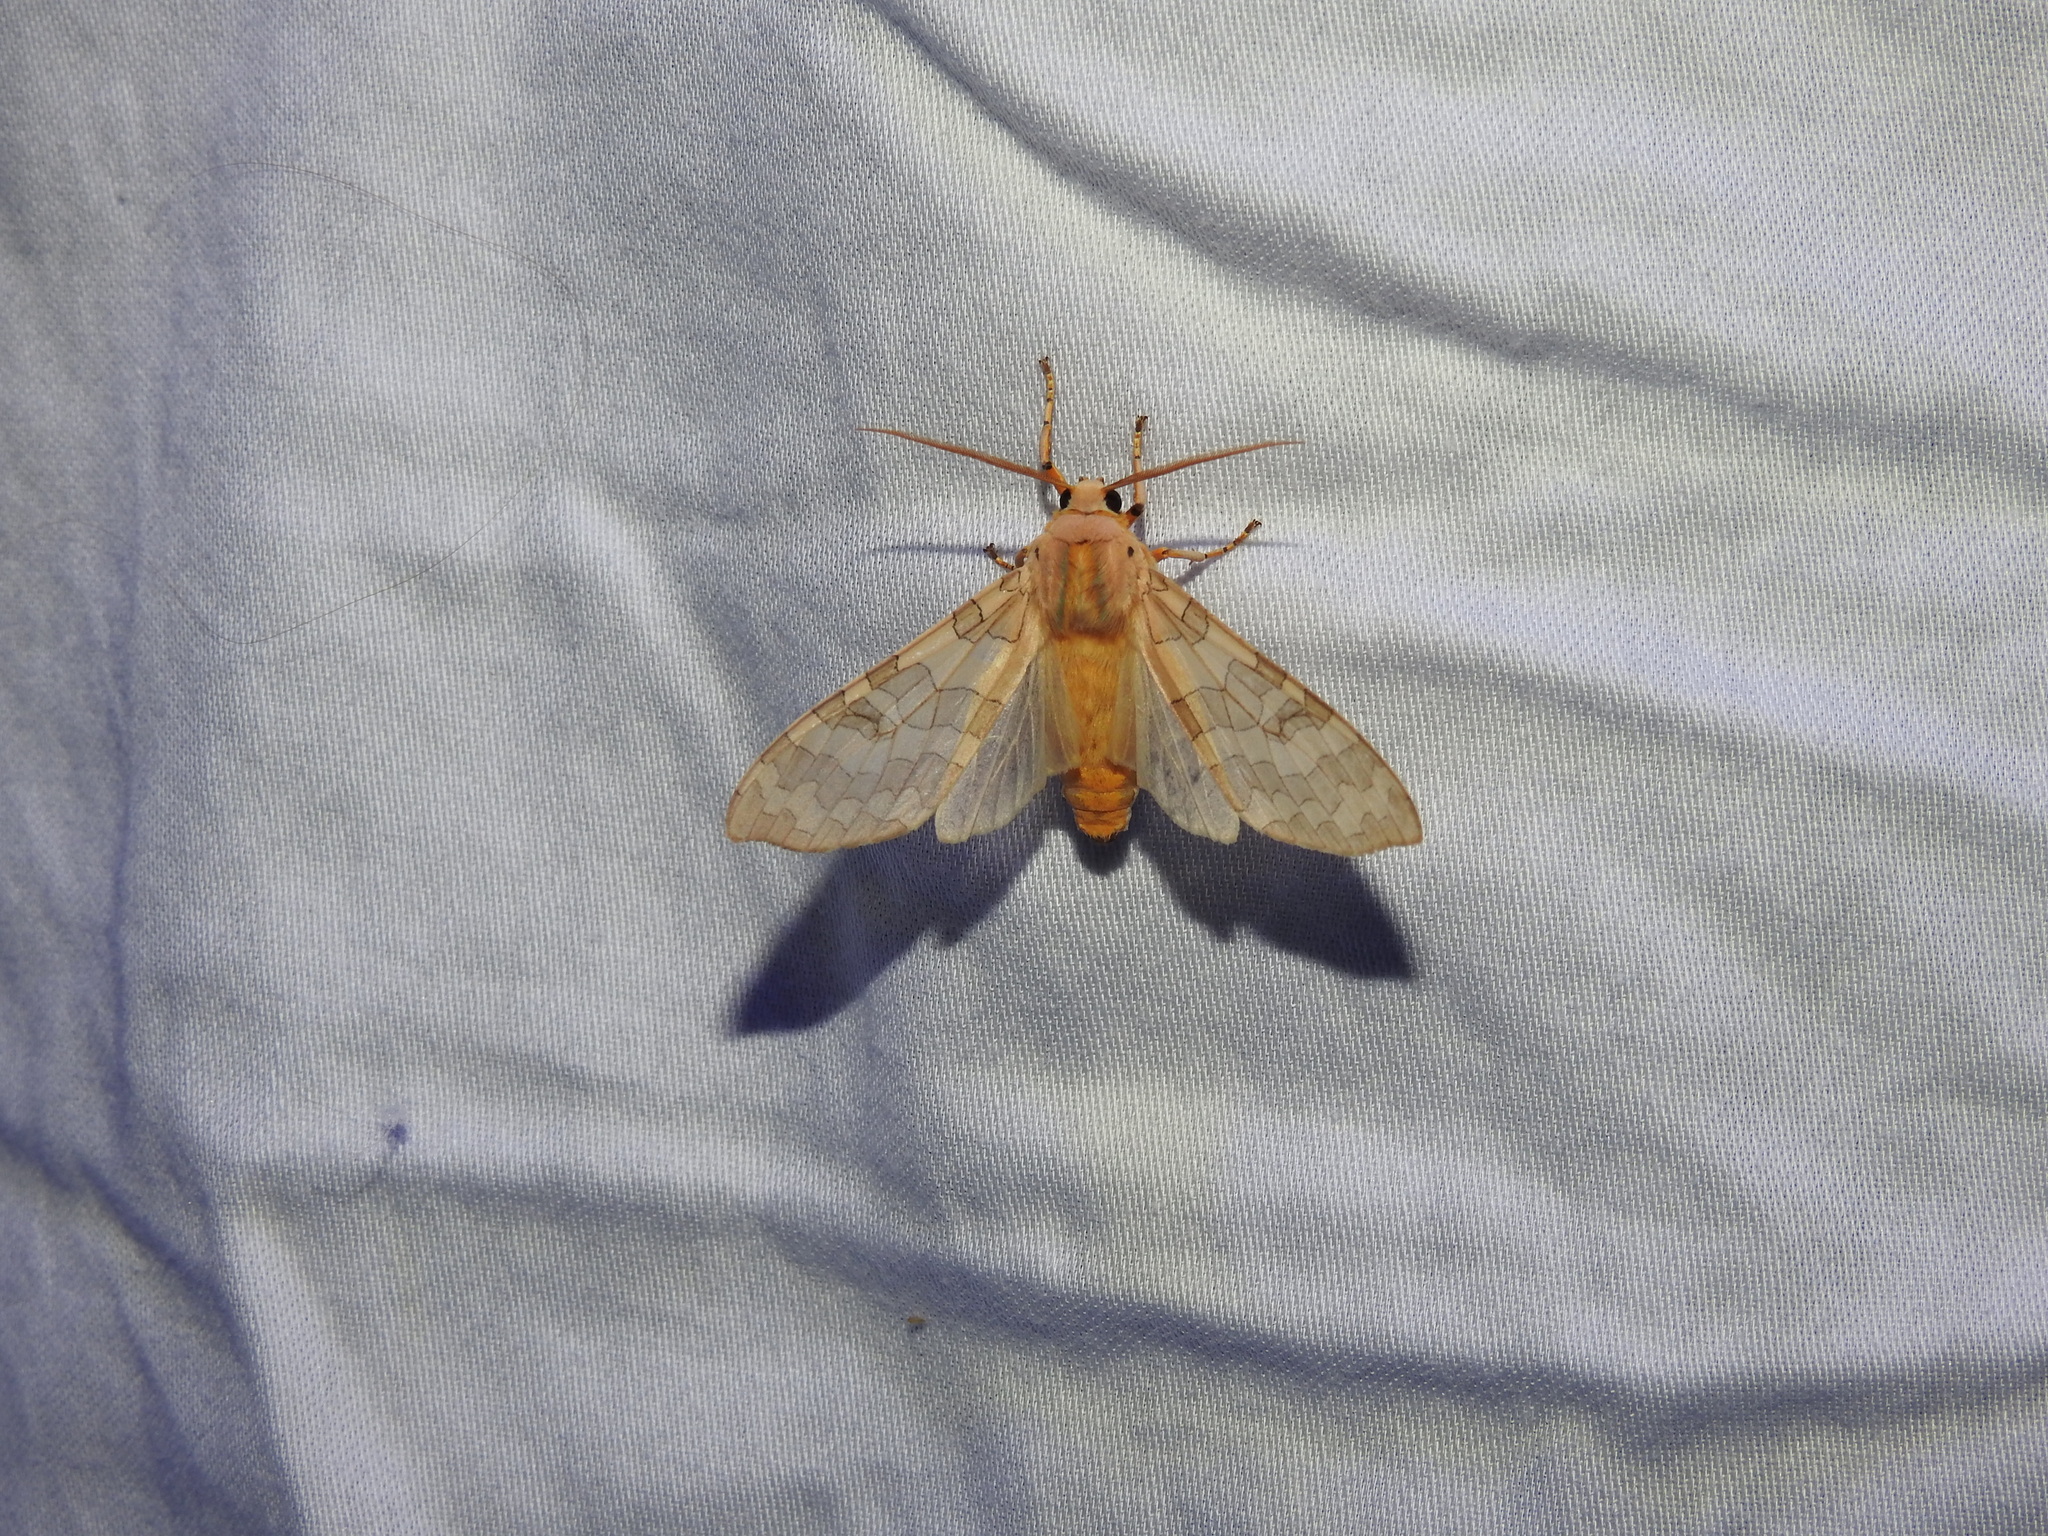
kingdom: Animalia
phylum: Arthropoda
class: Insecta
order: Lepidoptera
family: Erebidae
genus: Halysidota
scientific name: Halysidota
